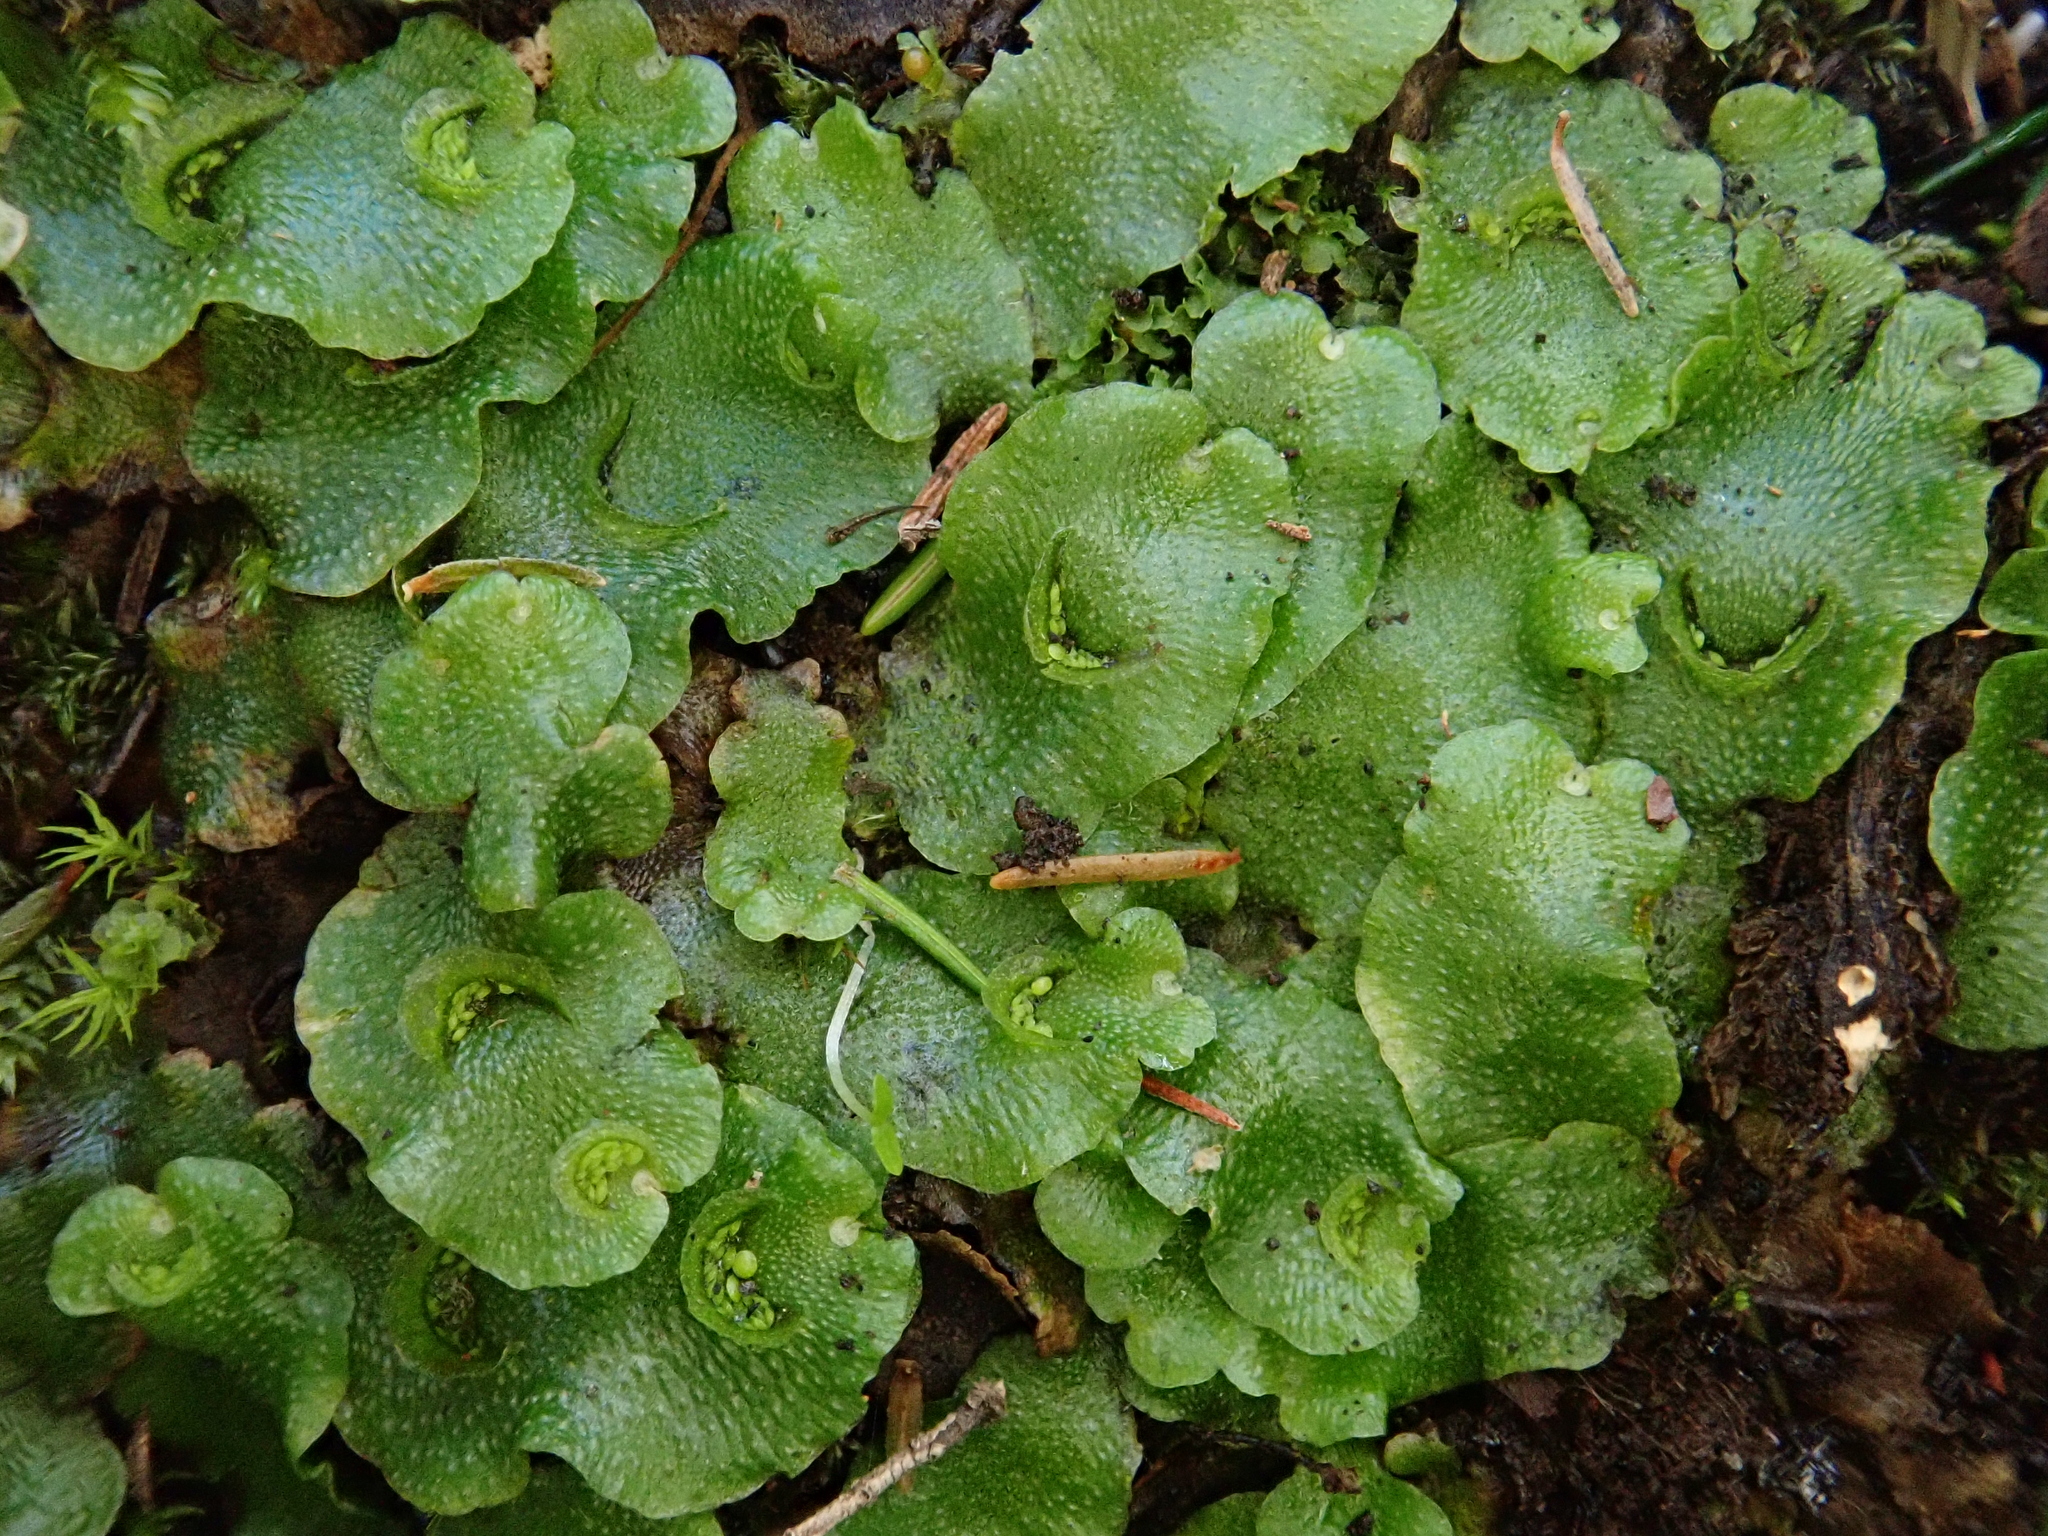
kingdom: Plantae
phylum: Marchantiophyta
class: Marchantiopsida
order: Lunulariales
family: Lunulariaceae
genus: Lunularia
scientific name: Lunularia cruciata
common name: Crescent-cup liverwort
